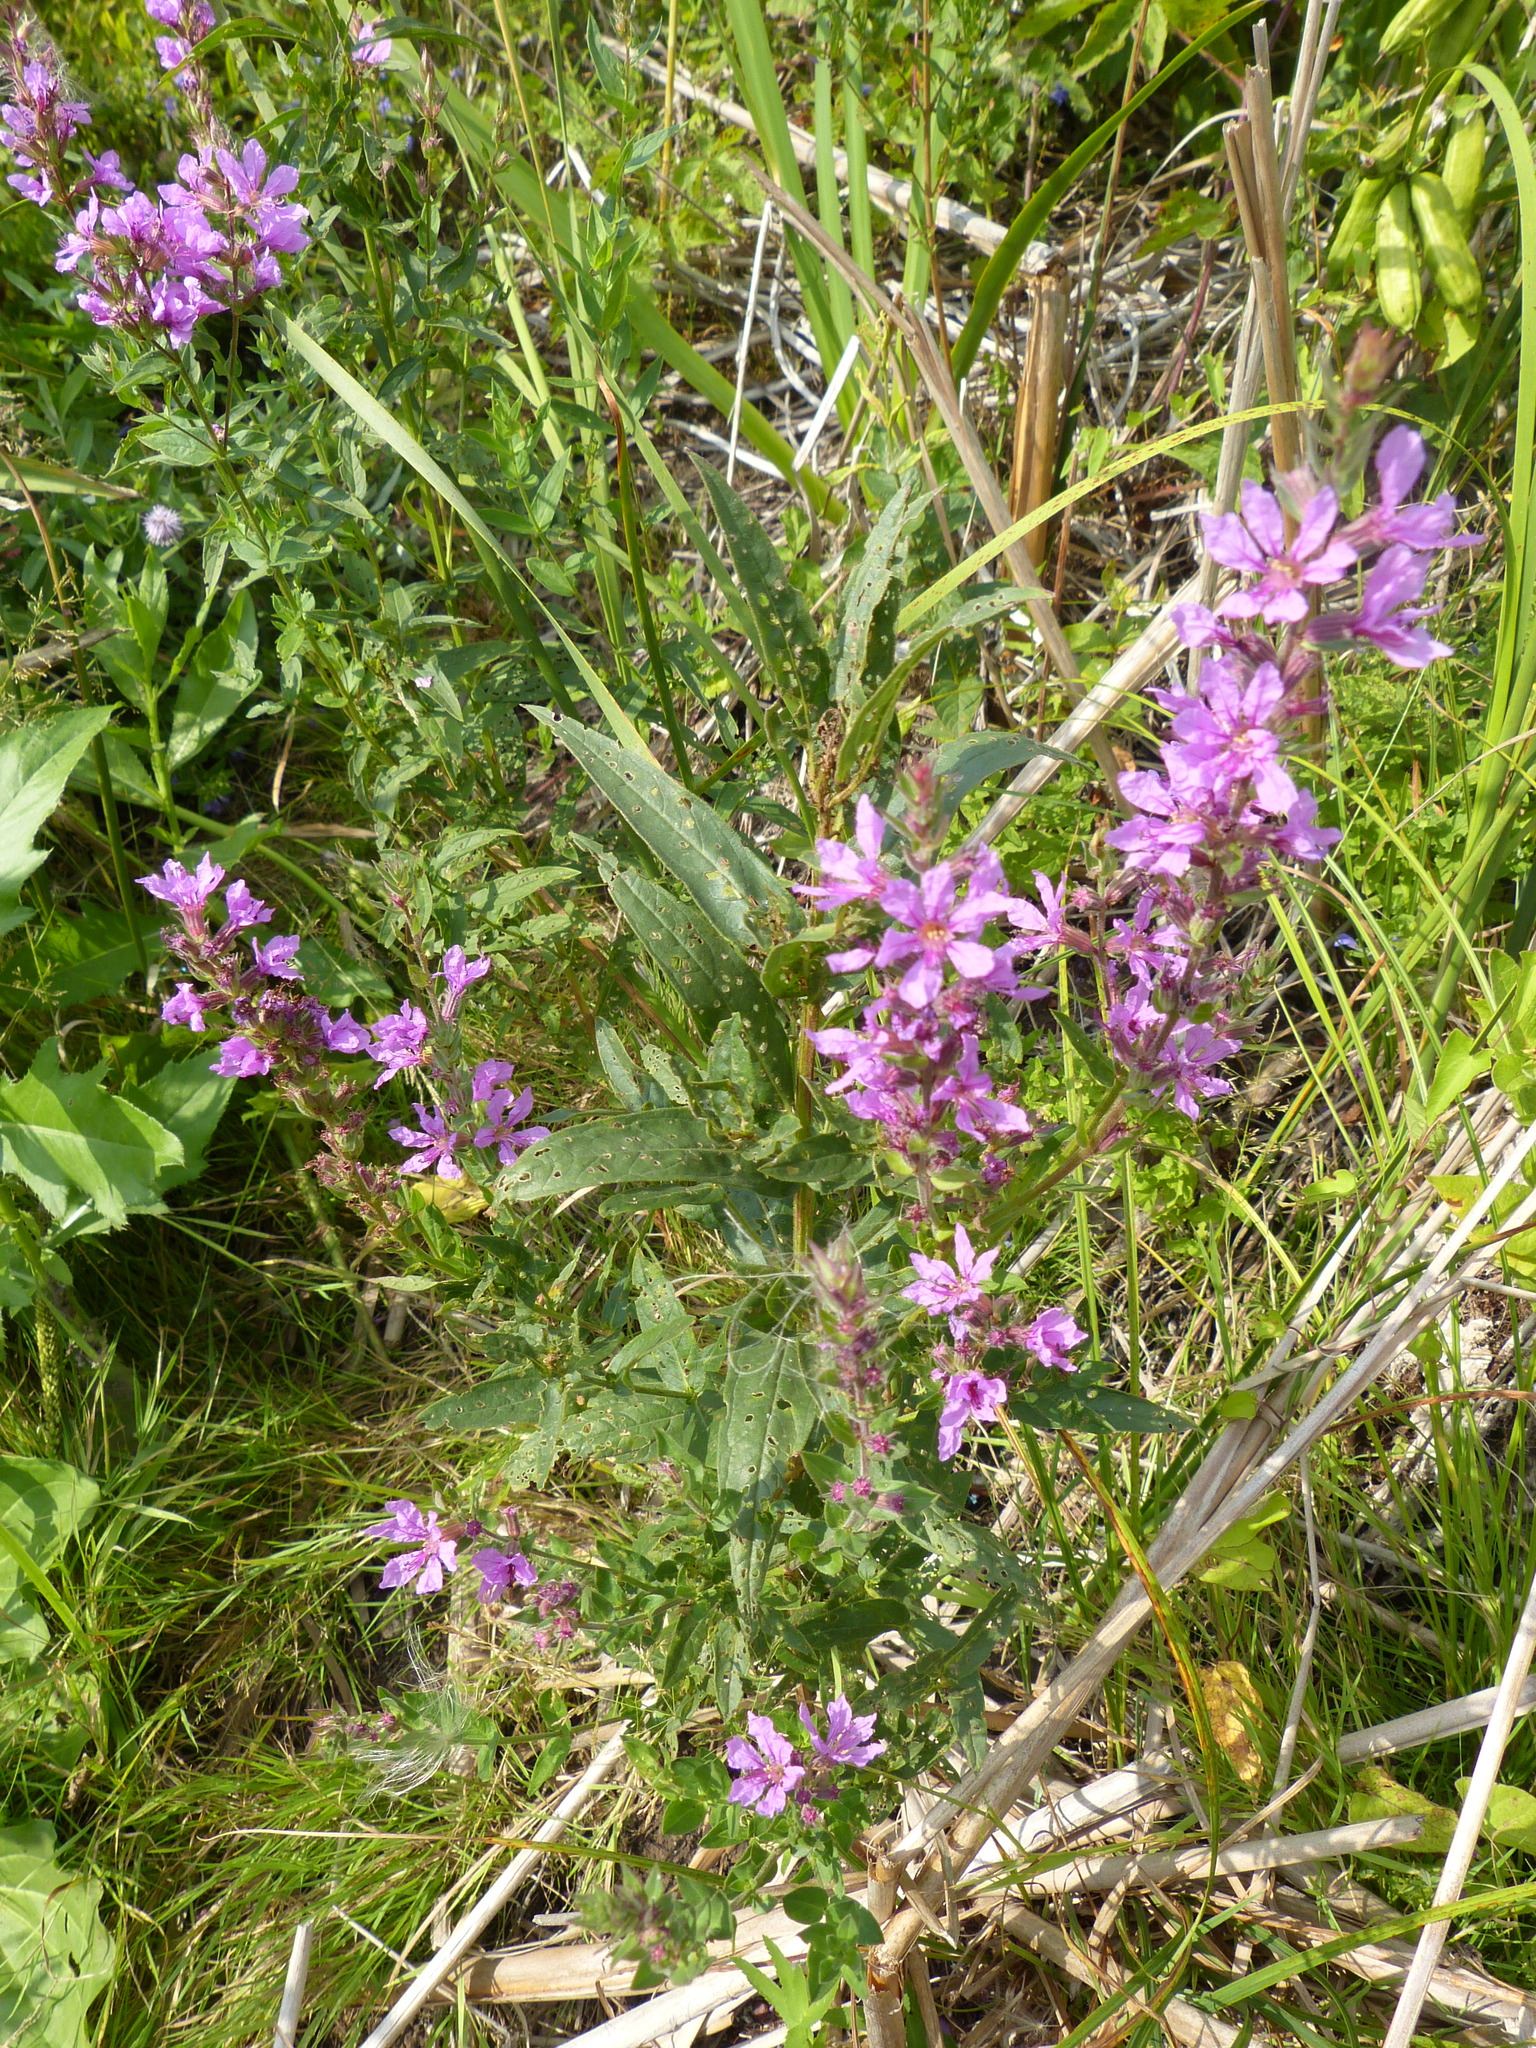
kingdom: Plantae
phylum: Tracheophyta
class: Magnoliopsida
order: Myrtales
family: Lythraceae
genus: Lythrum
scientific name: Lythrum salicaria
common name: Purple loosestrife
